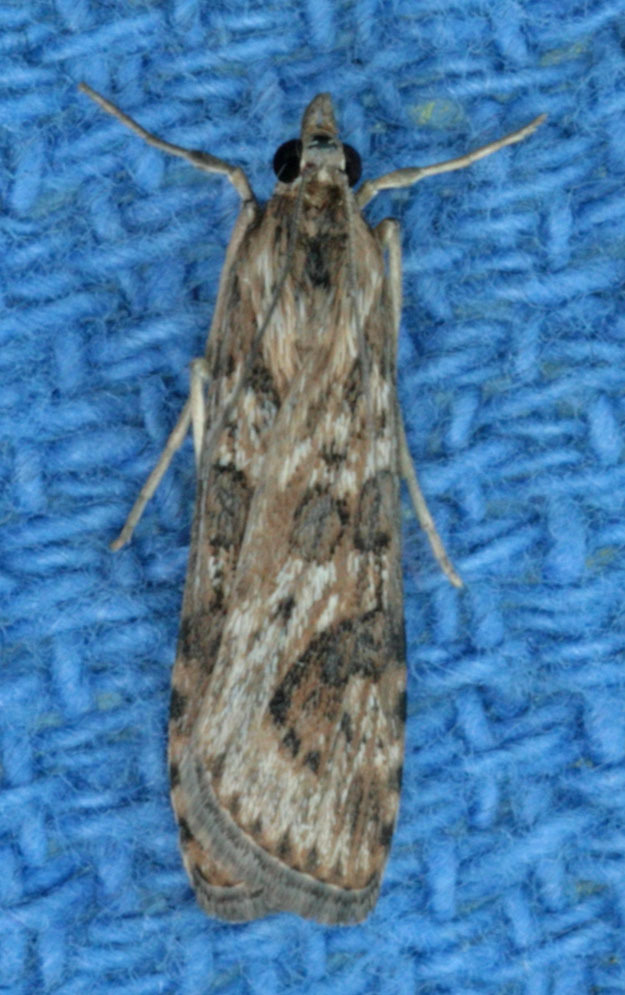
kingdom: Animalia
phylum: Arthropoda
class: Insecta
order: Lepidoptera
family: Crambidae
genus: Nomophila
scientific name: Nomophila nearctica
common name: American rush veneer
